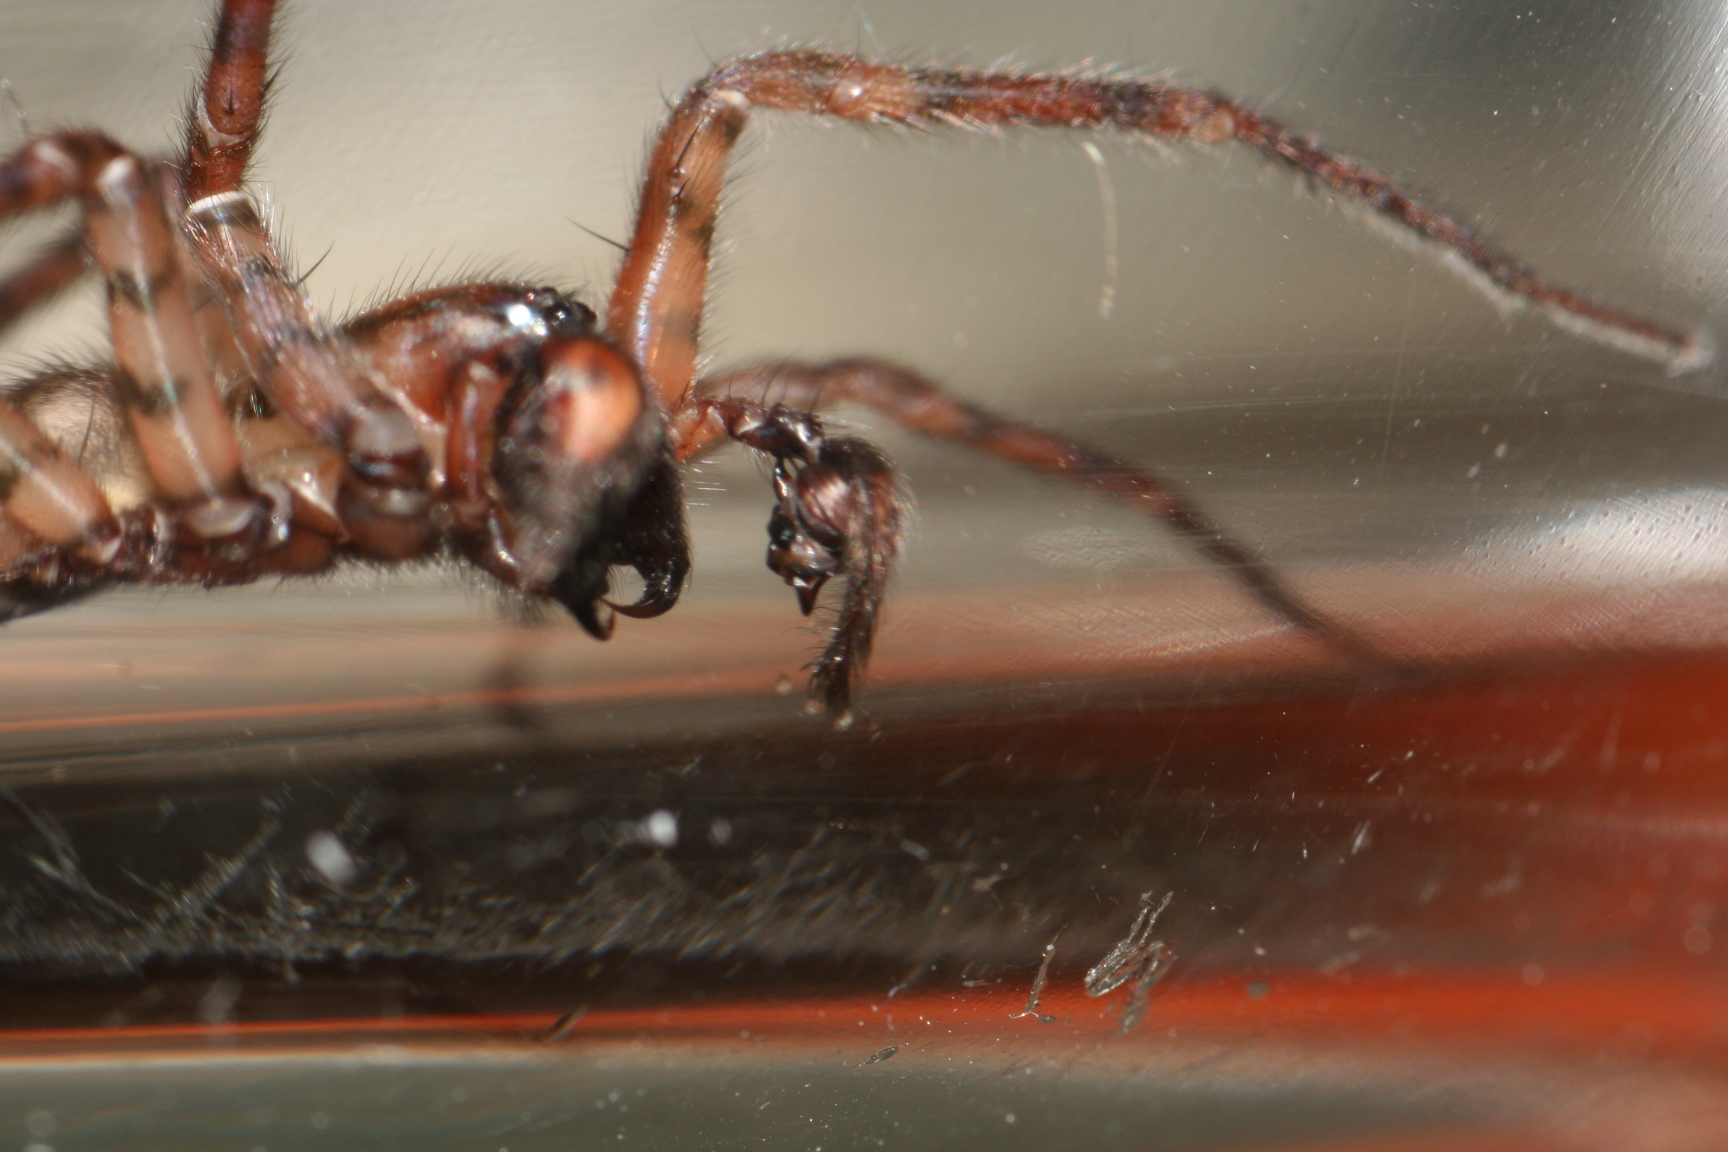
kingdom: Animalia
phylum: Arthropoda
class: Arachnida
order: Araneae
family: Agelenidae
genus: Coras
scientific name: Coras
